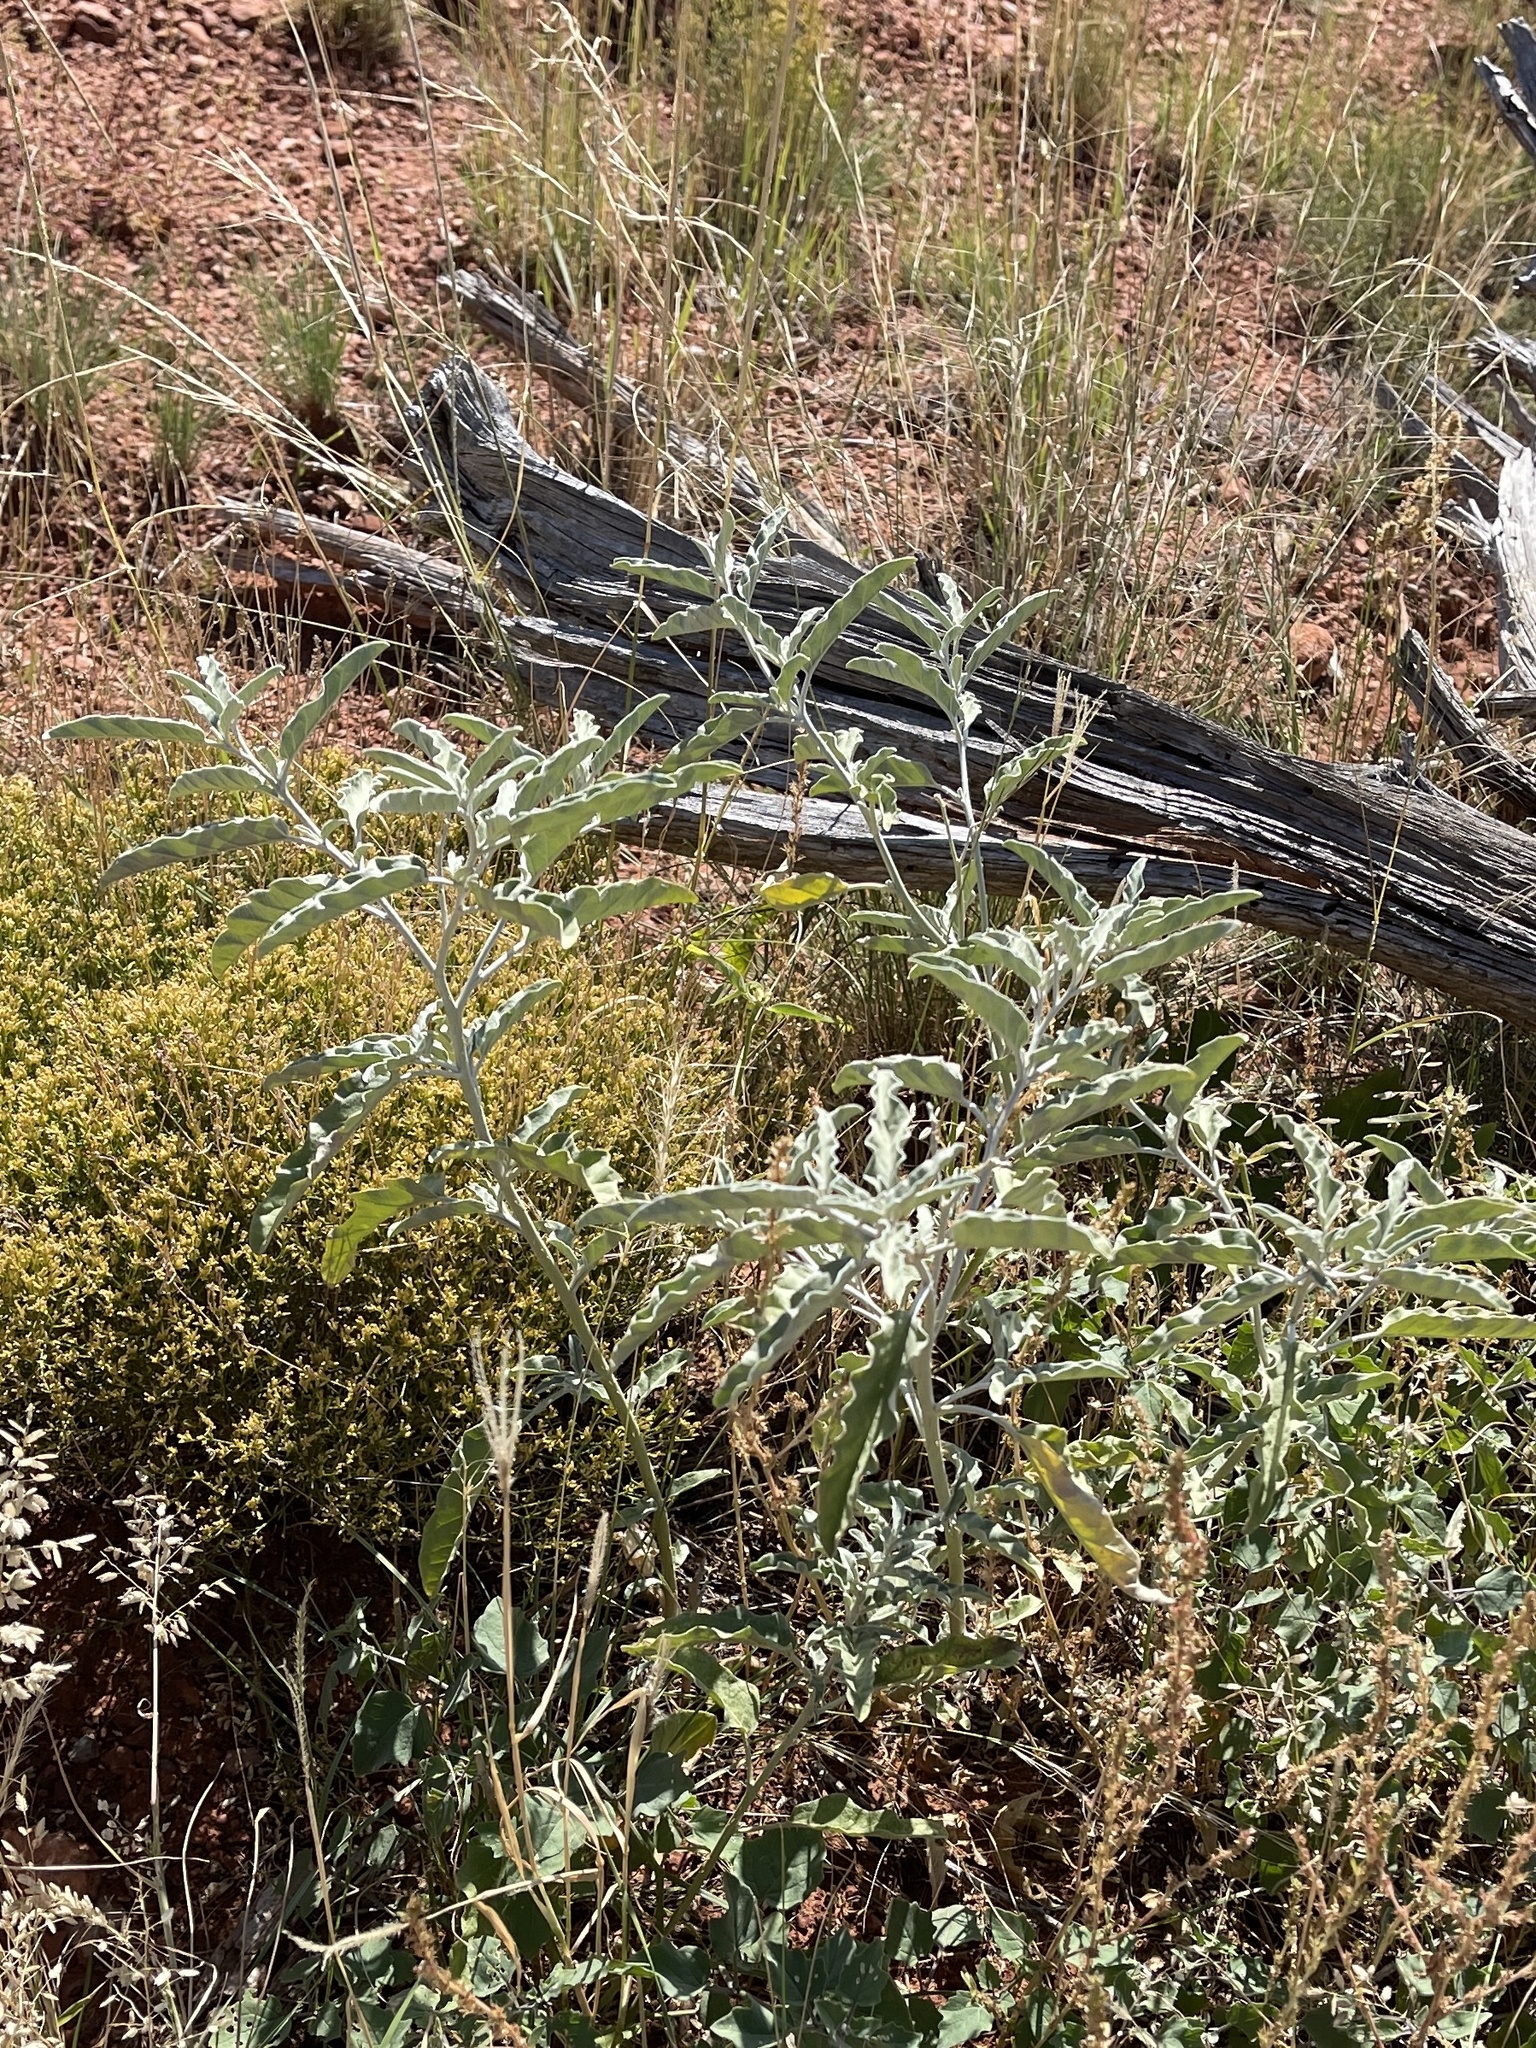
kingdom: Plantae
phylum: Tracheophyta
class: Magnoliopsida
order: Solanales
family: Solanaceae
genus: Solanum
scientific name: Solanum elaeagnifolium
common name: Silverleaf nightshade
